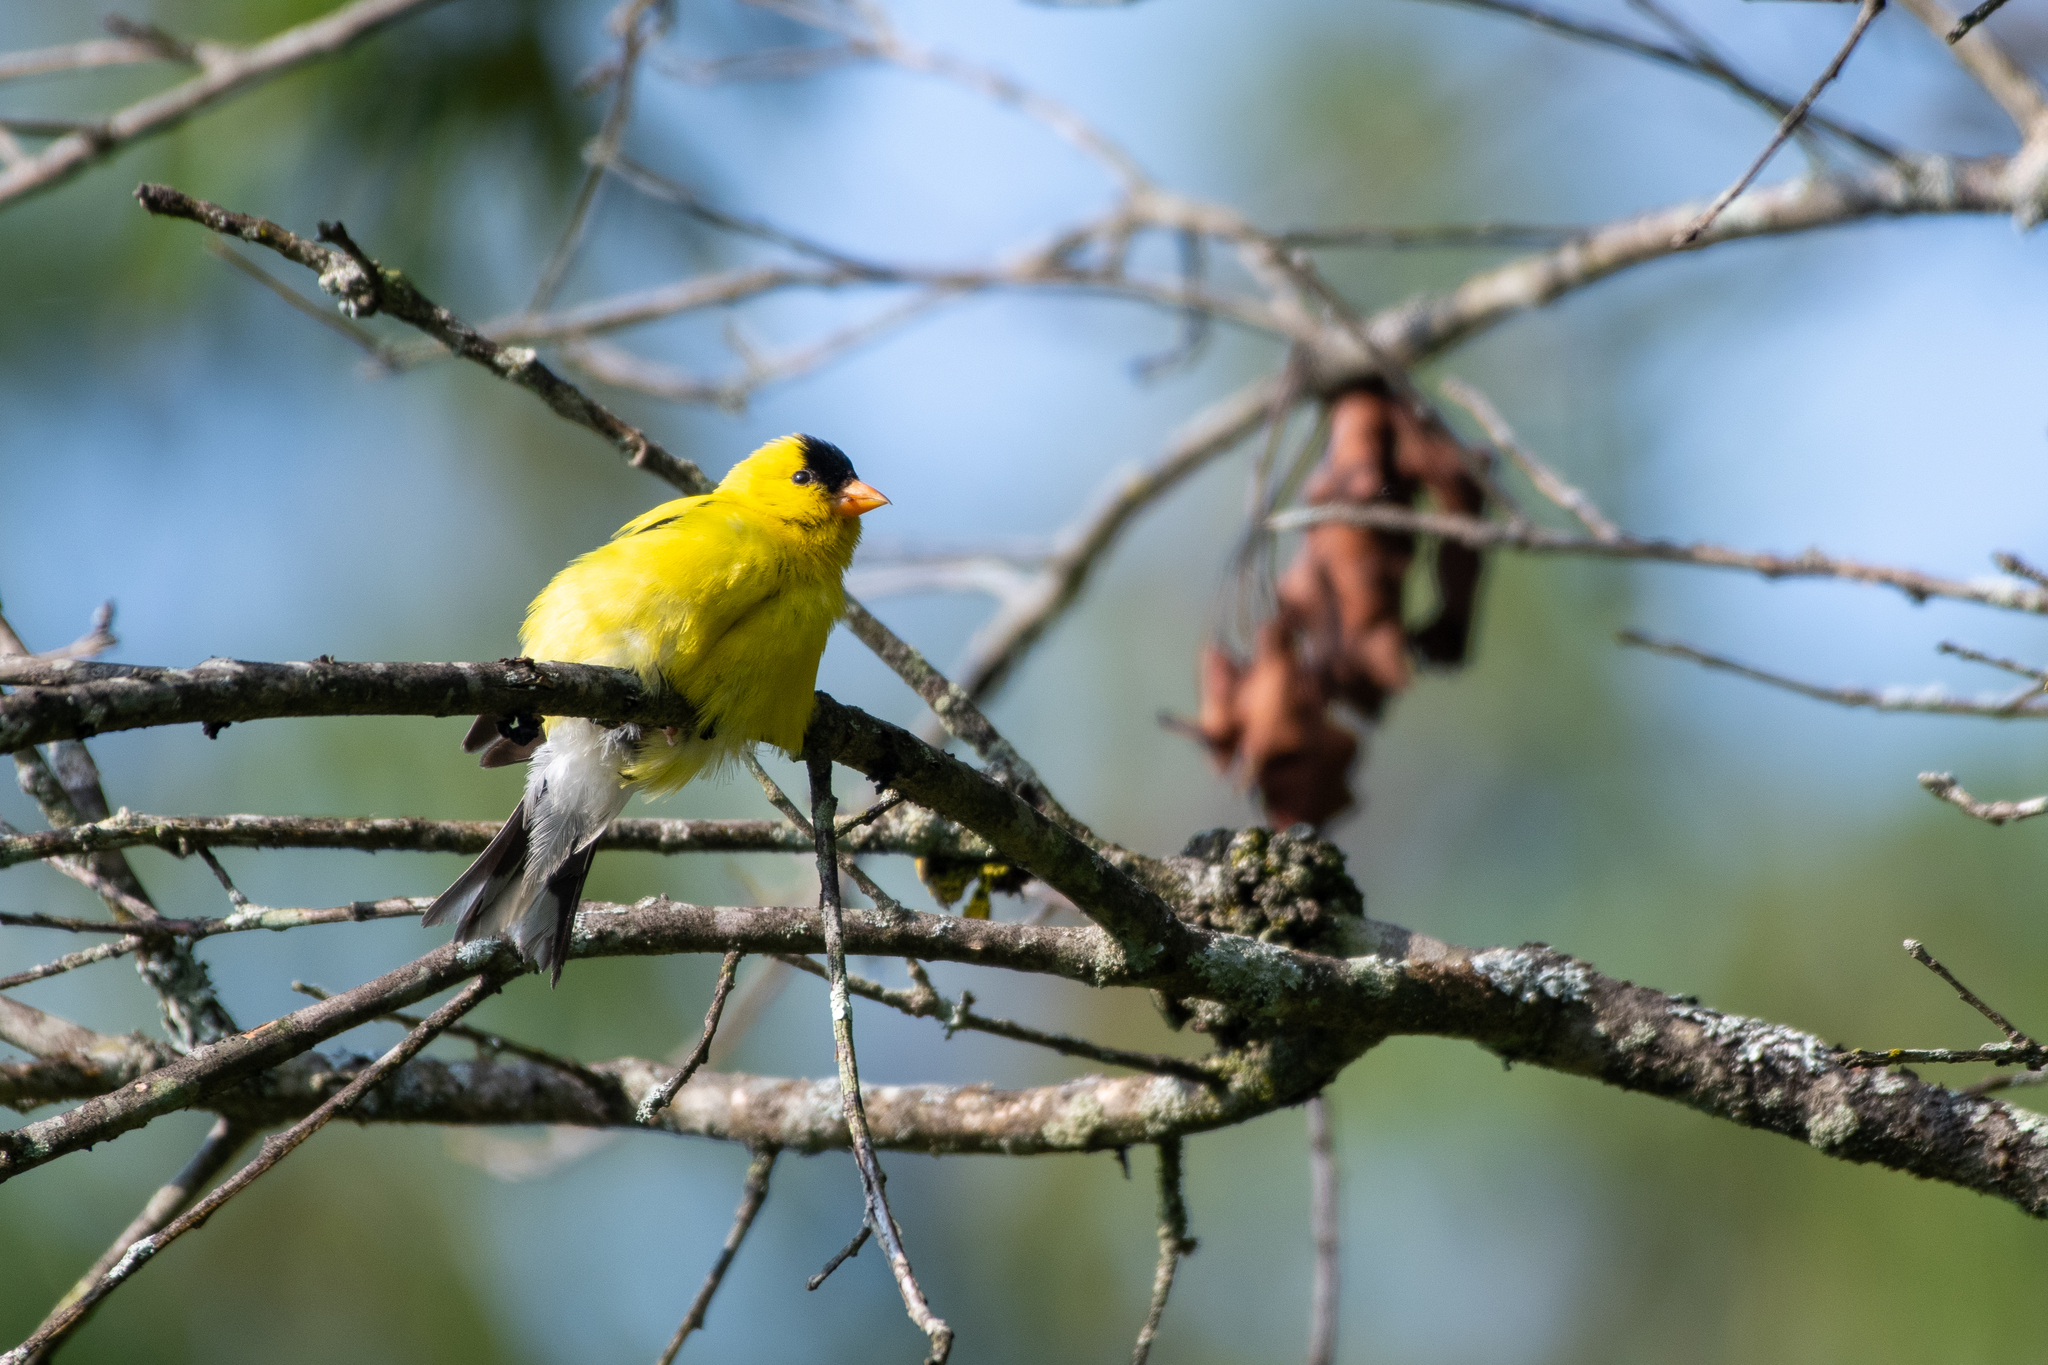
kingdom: Animalia
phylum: Chordata
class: Aves
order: Passeriformes
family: Fringillidae
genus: Spinus
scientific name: Spinus tristis
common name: American goldfinch
